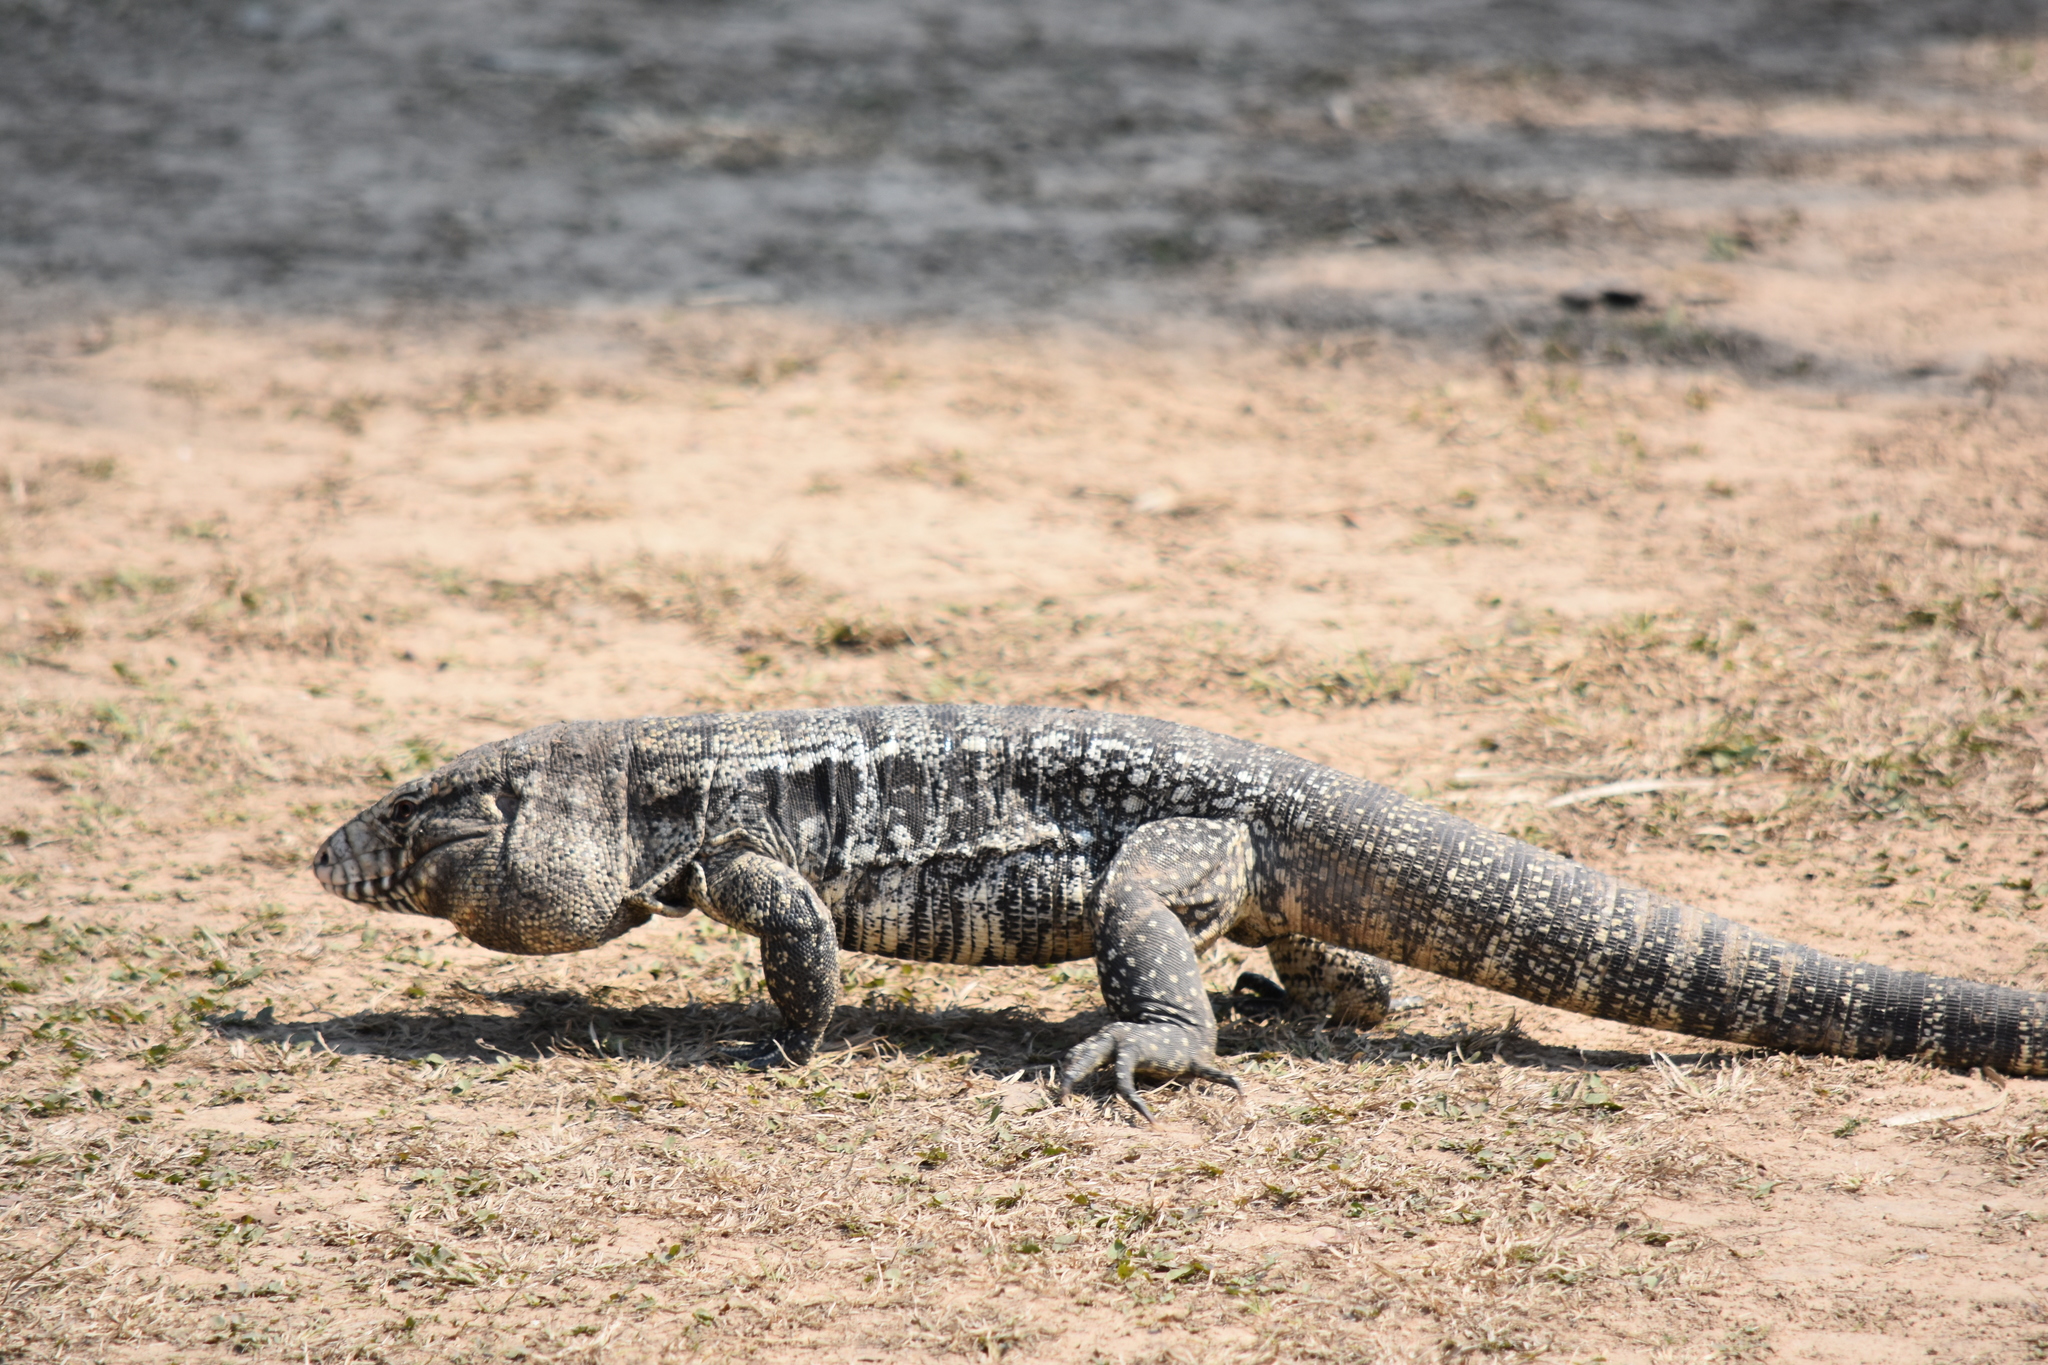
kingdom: Animalia
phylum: Chordata
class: Squamata
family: Teiidae
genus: Salvator
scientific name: Salvator merianae
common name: Argentine black and white tegu
